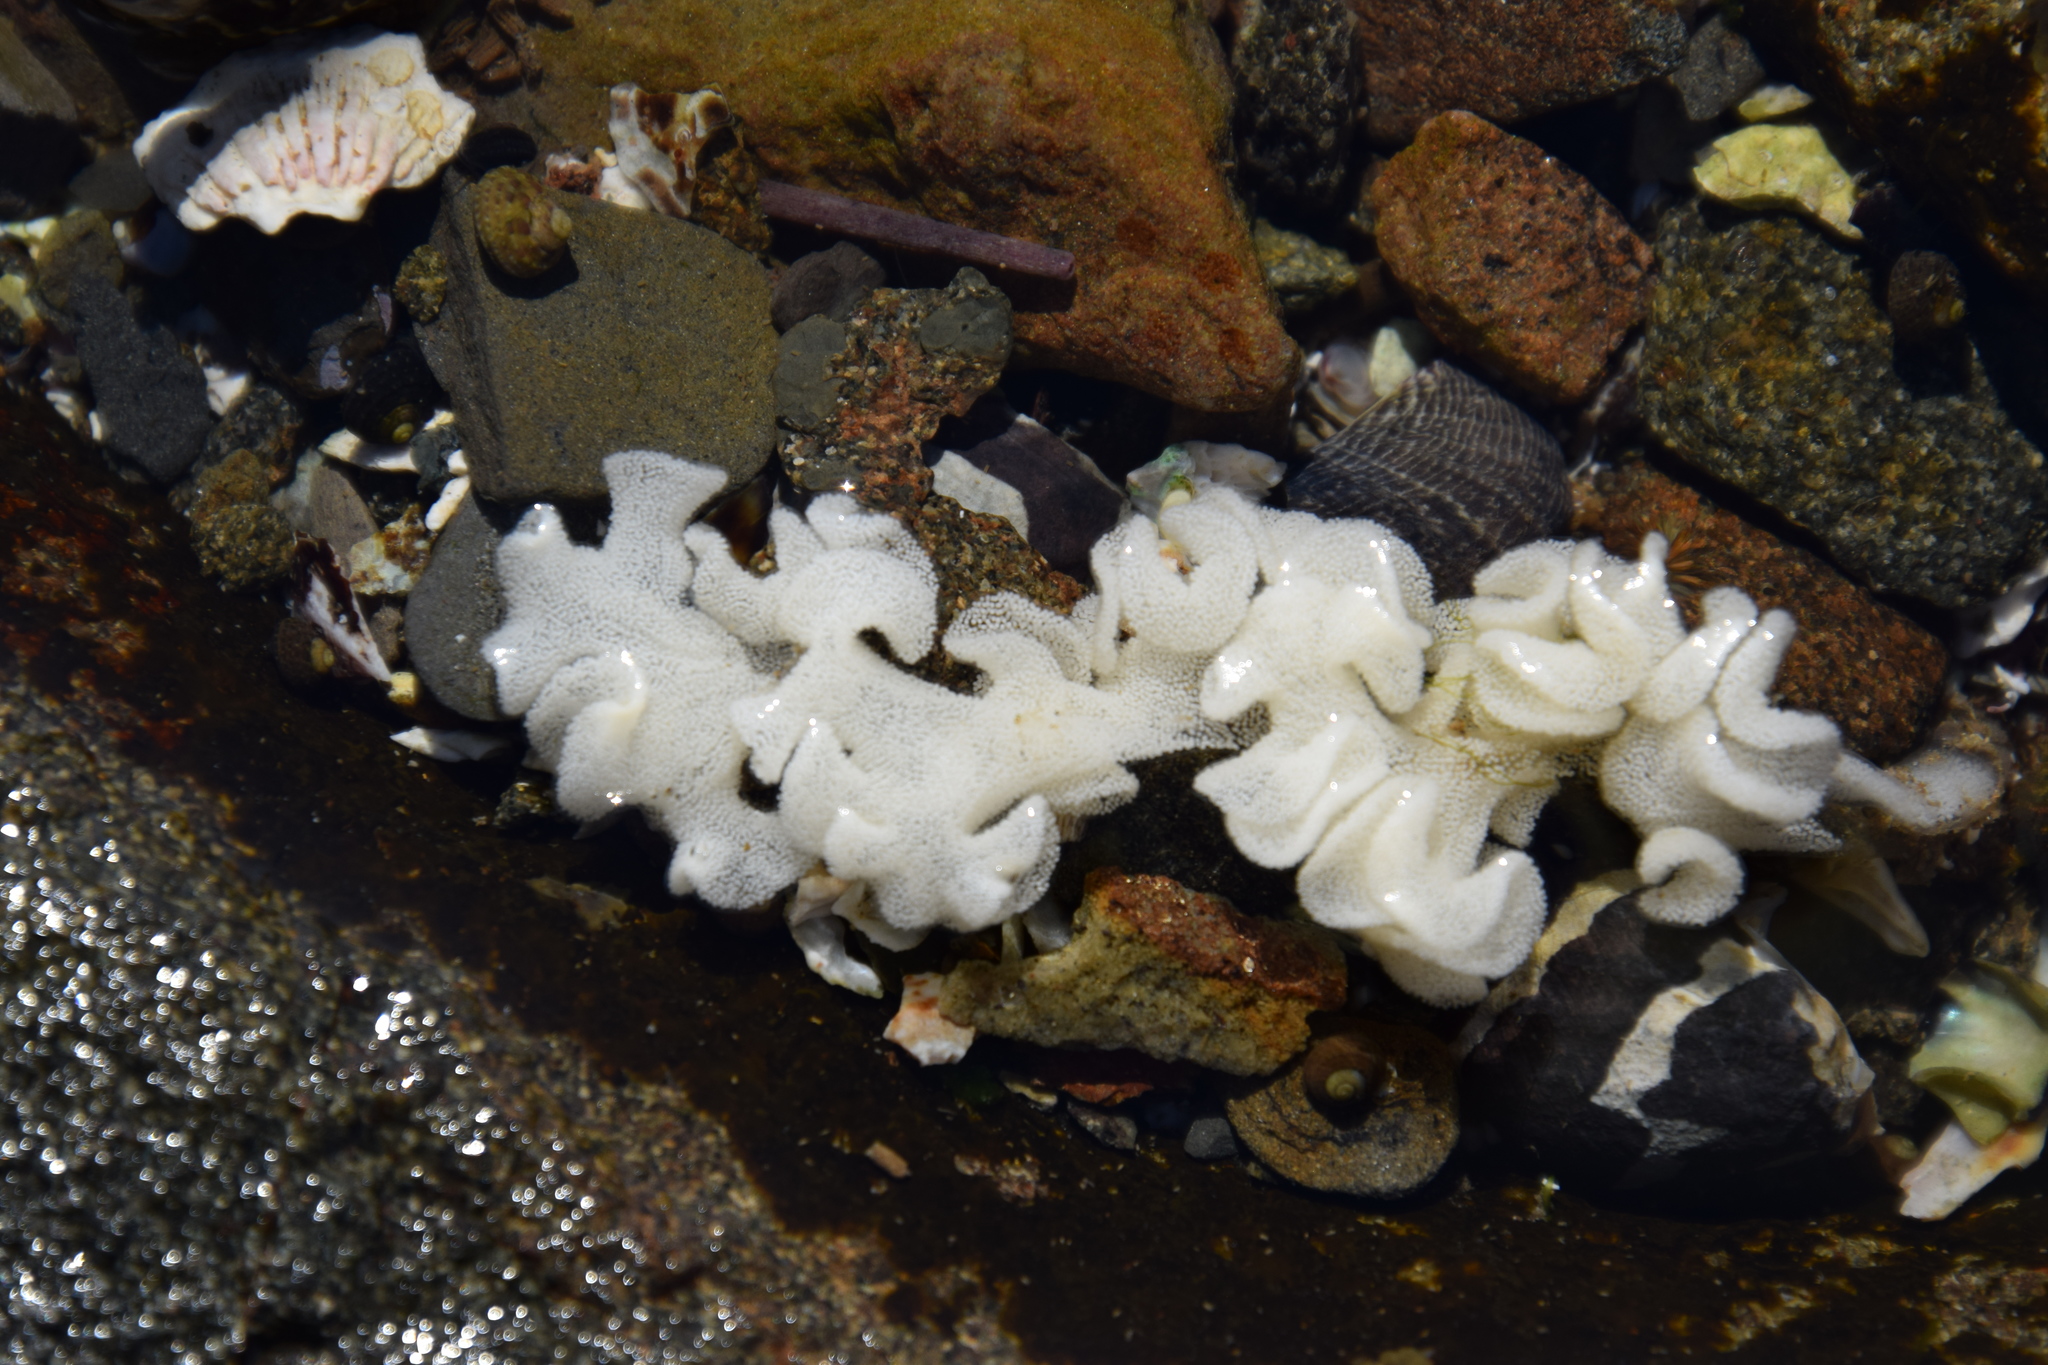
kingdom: Animalia
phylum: Mollusca
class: Gastropoda
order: Cephalaspidea
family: Aplustridae
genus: Hydatina
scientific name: Hydatina physis
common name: Brown-line paperbubble
